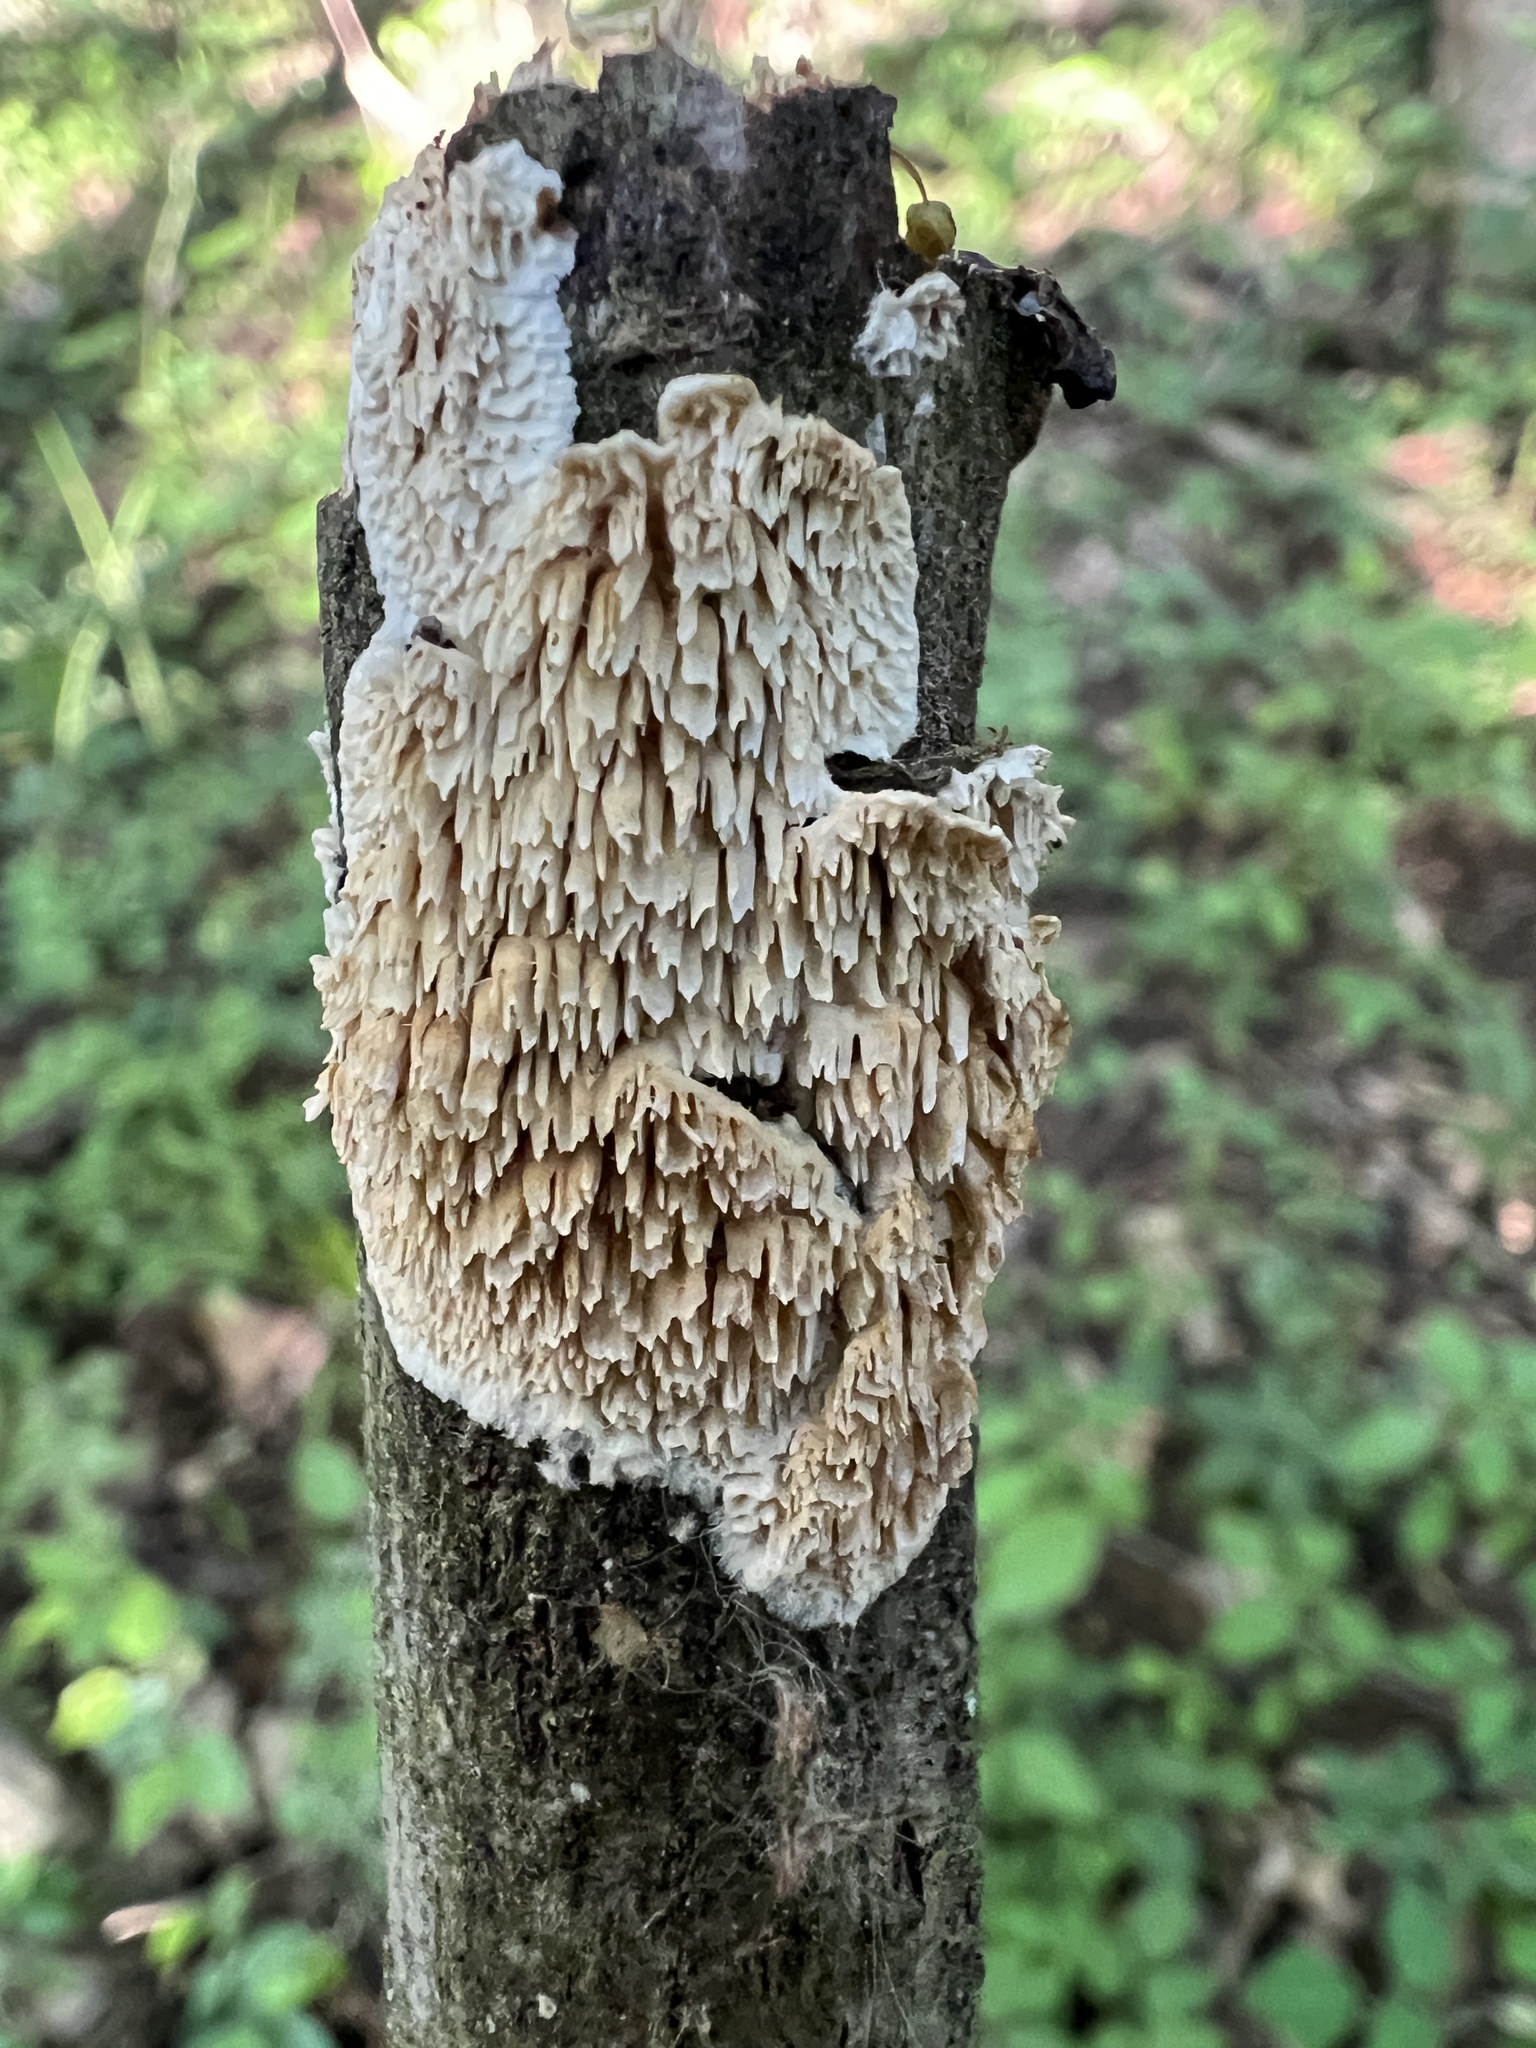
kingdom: Fungi
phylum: Basidiomycota
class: Agaricomycetes
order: Polyporales
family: Irpicaceae
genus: Irpex
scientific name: Irpex lacteus
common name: Milk-white toothed polypore
